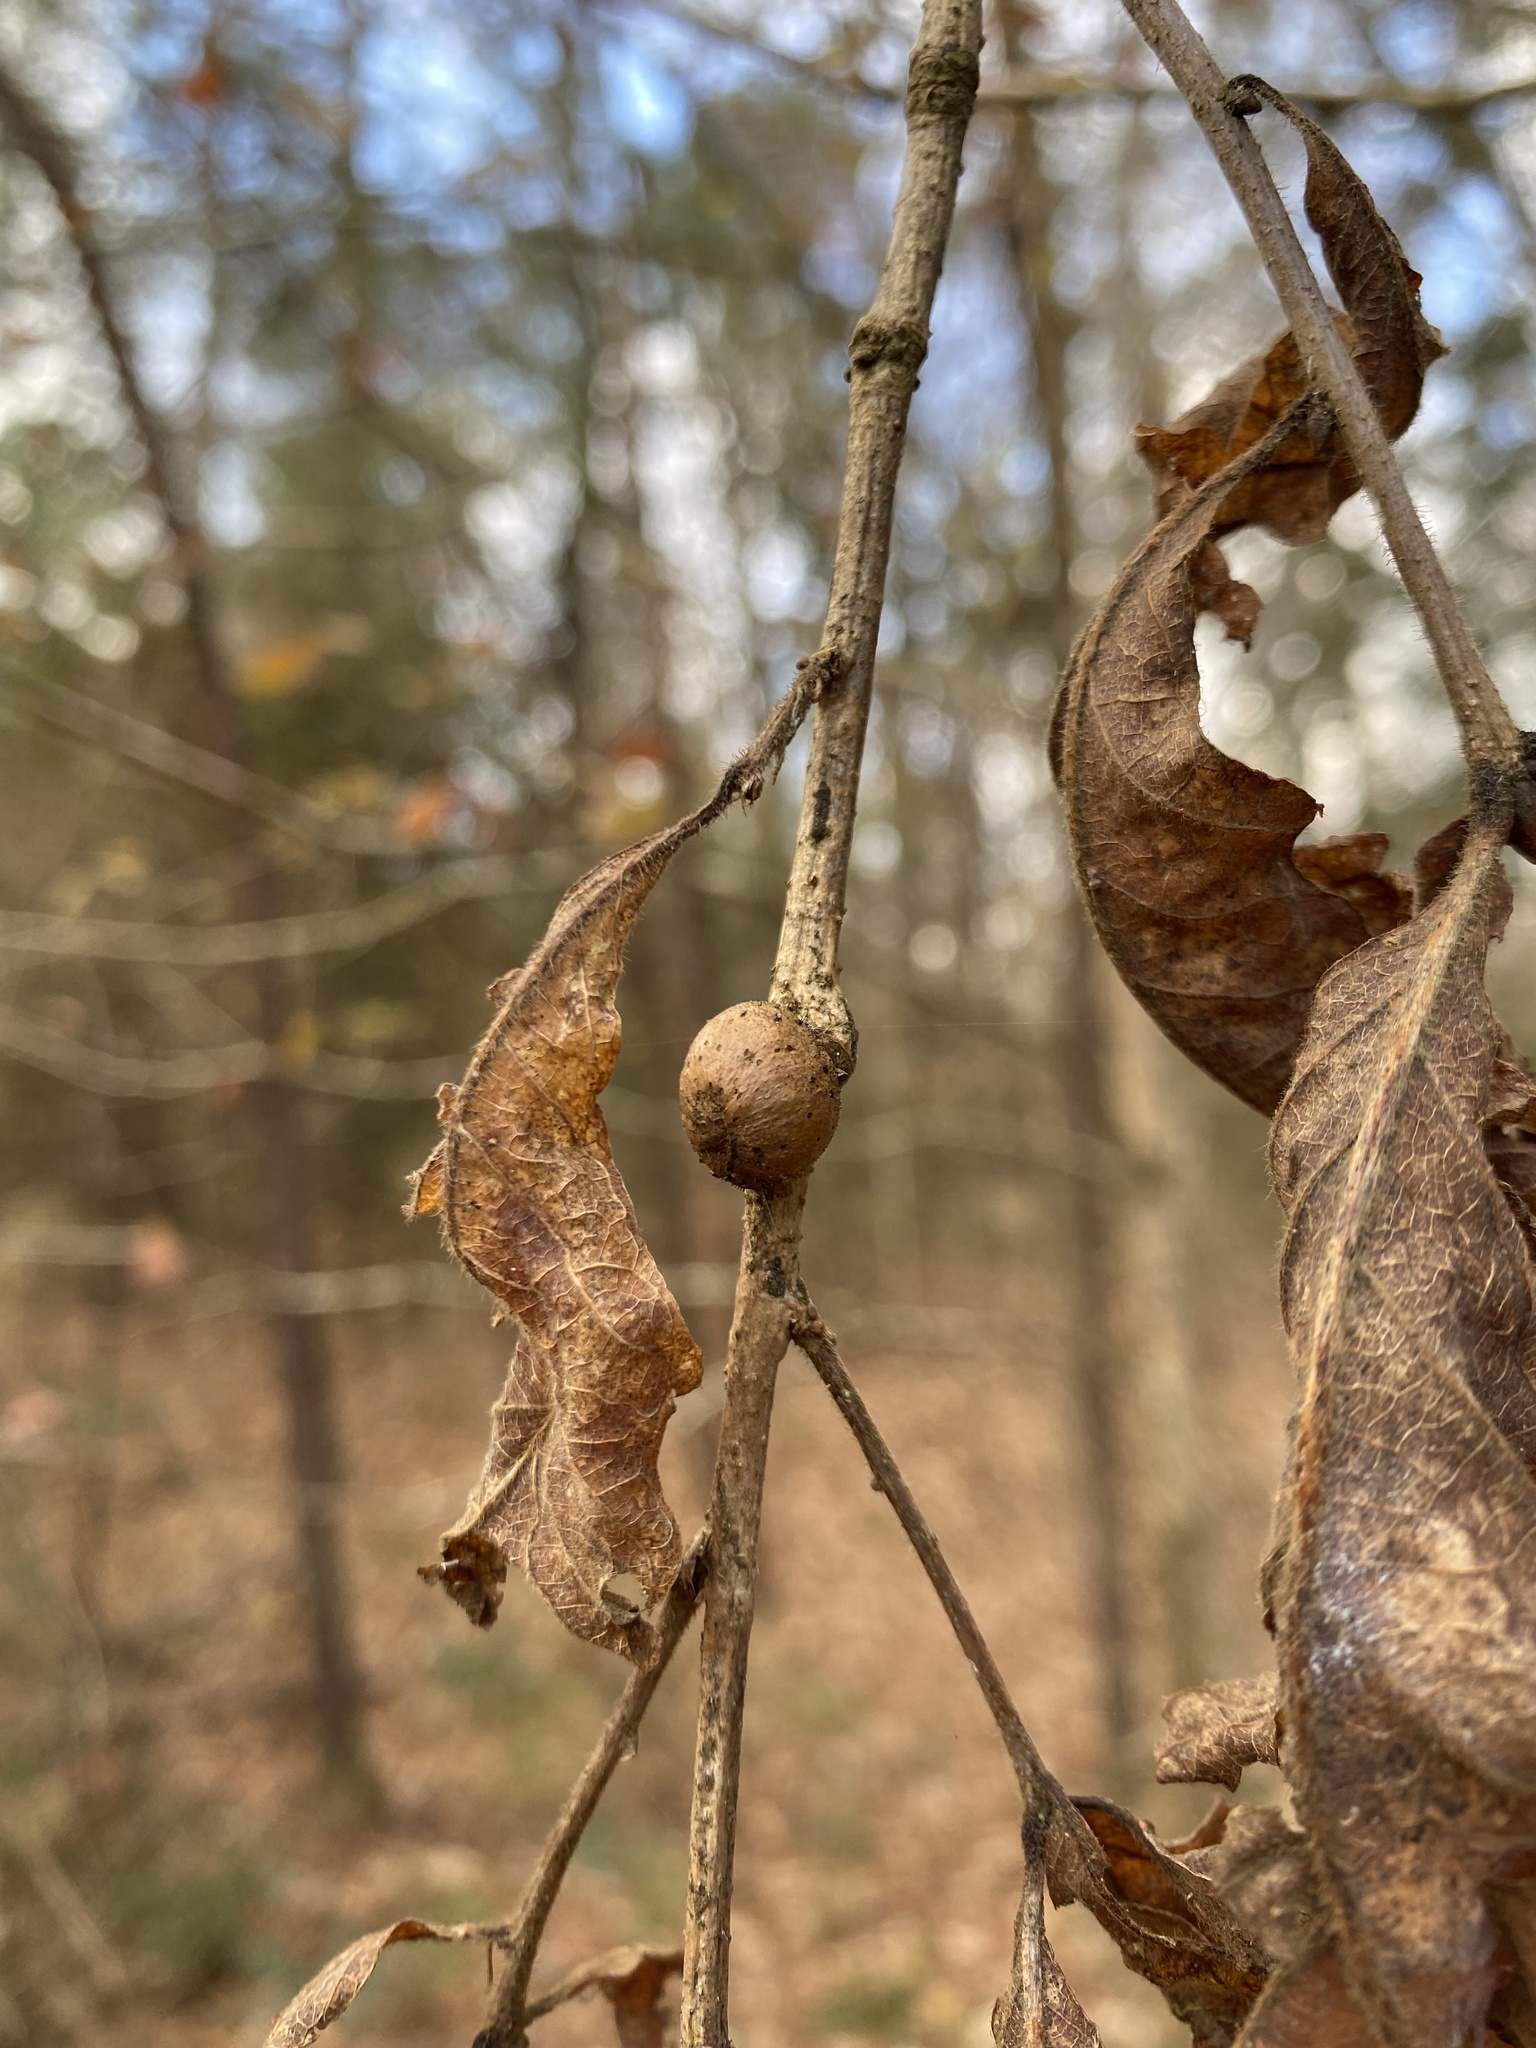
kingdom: Animalia
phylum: Arthropoda
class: Insecta
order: Hymenoptera
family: Cynipidae
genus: Disholcaspis
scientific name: Disholcaspis quercusglobulus
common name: Round bullet gall wasp
